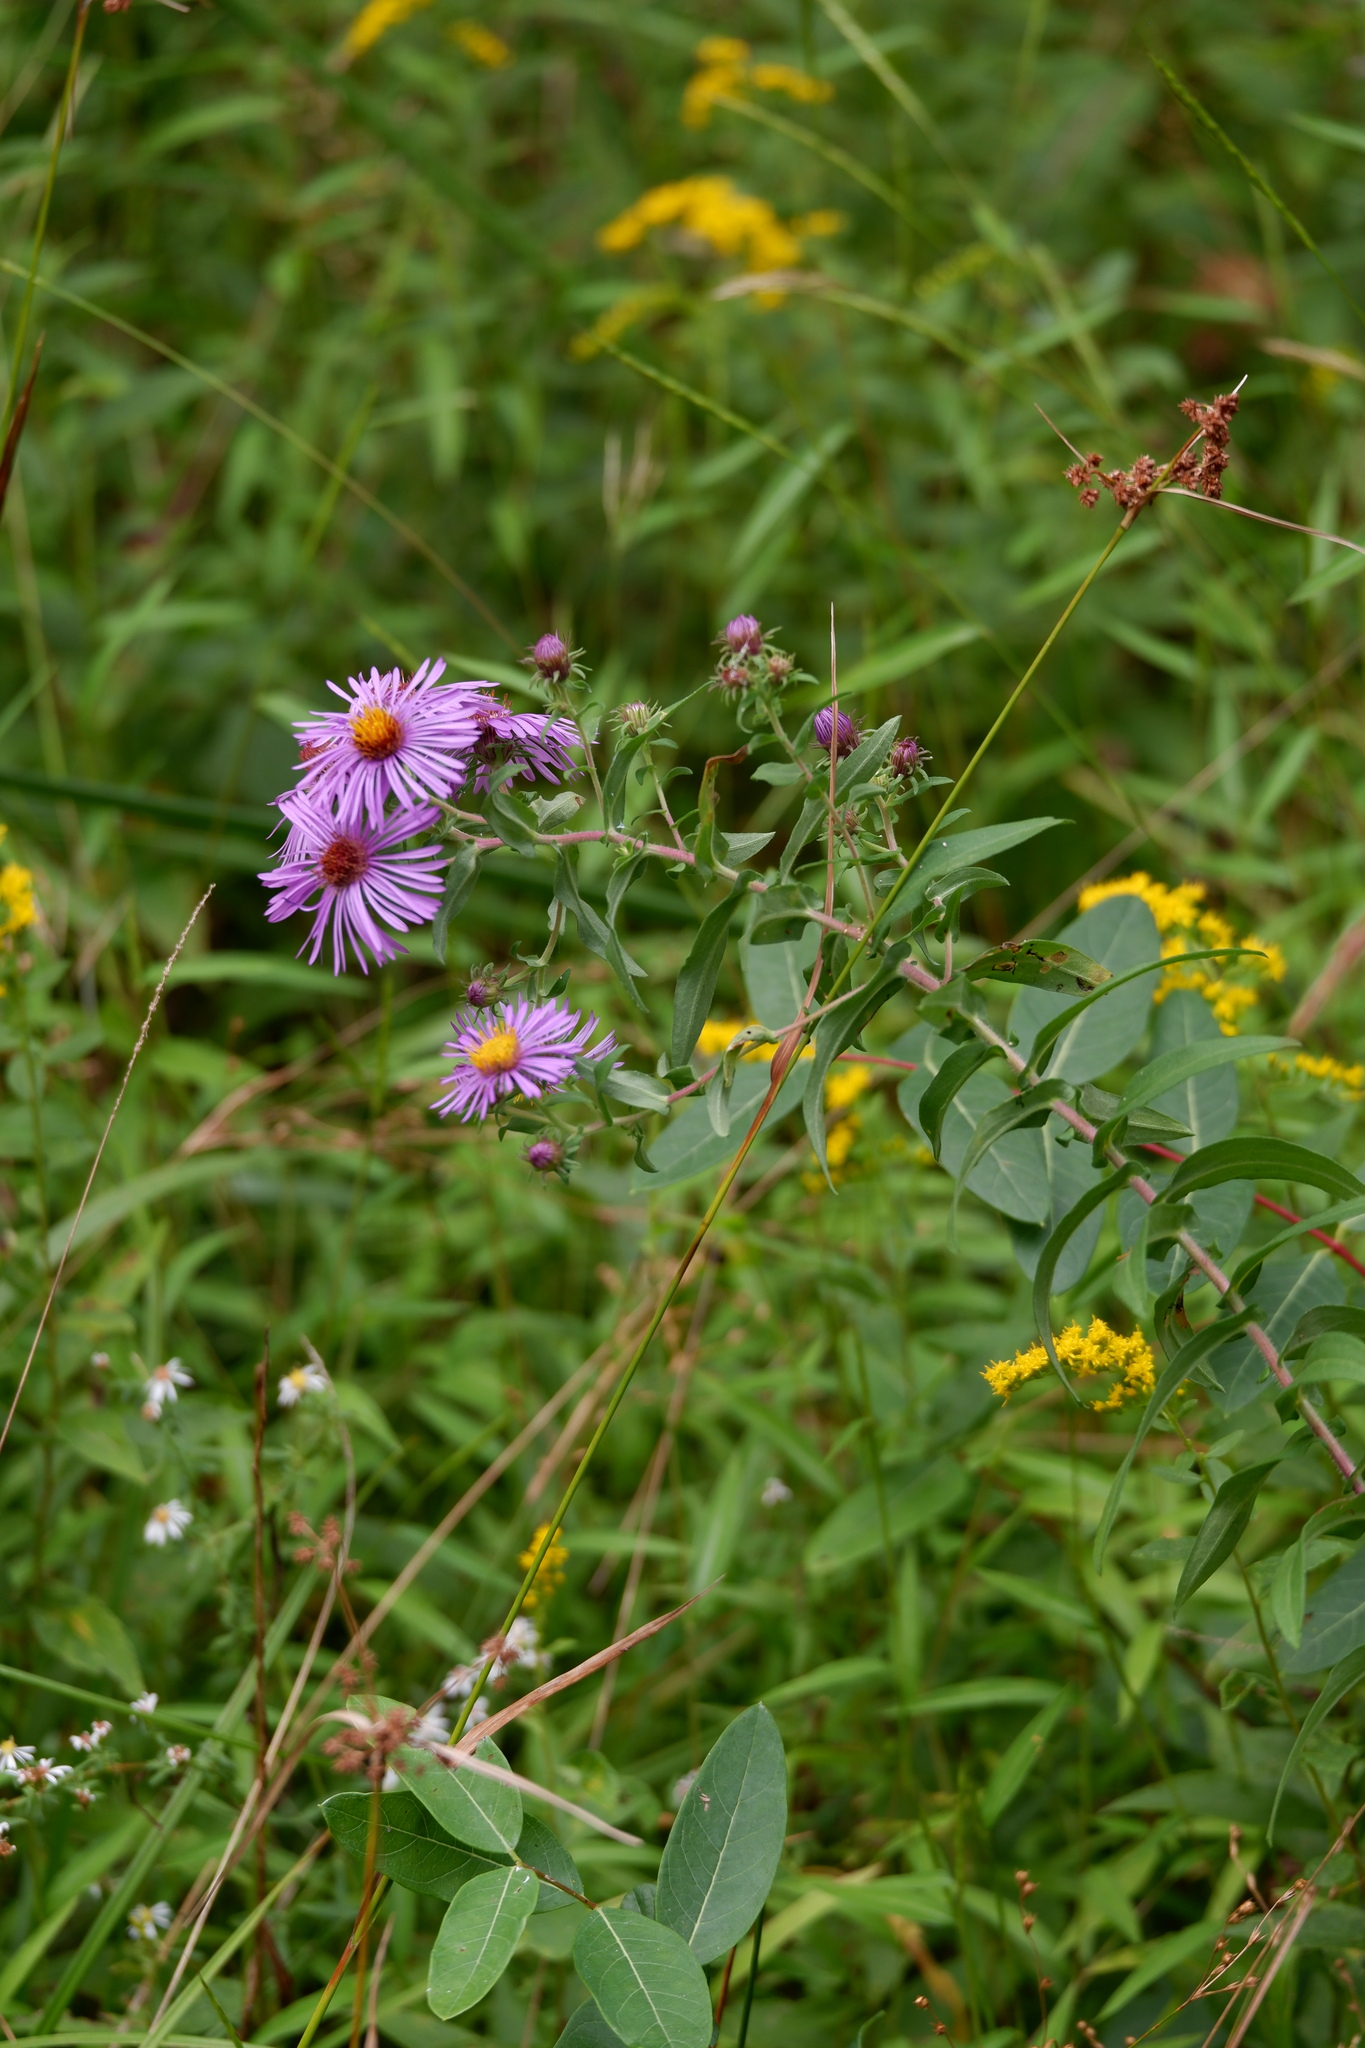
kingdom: Plantae
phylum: Tracheophyta
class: Magnoliopsida
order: Asterales
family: Asteraceae
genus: Symphyotrichum
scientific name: Symphyotrichum novae-angliae
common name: Michaelmas daisy
